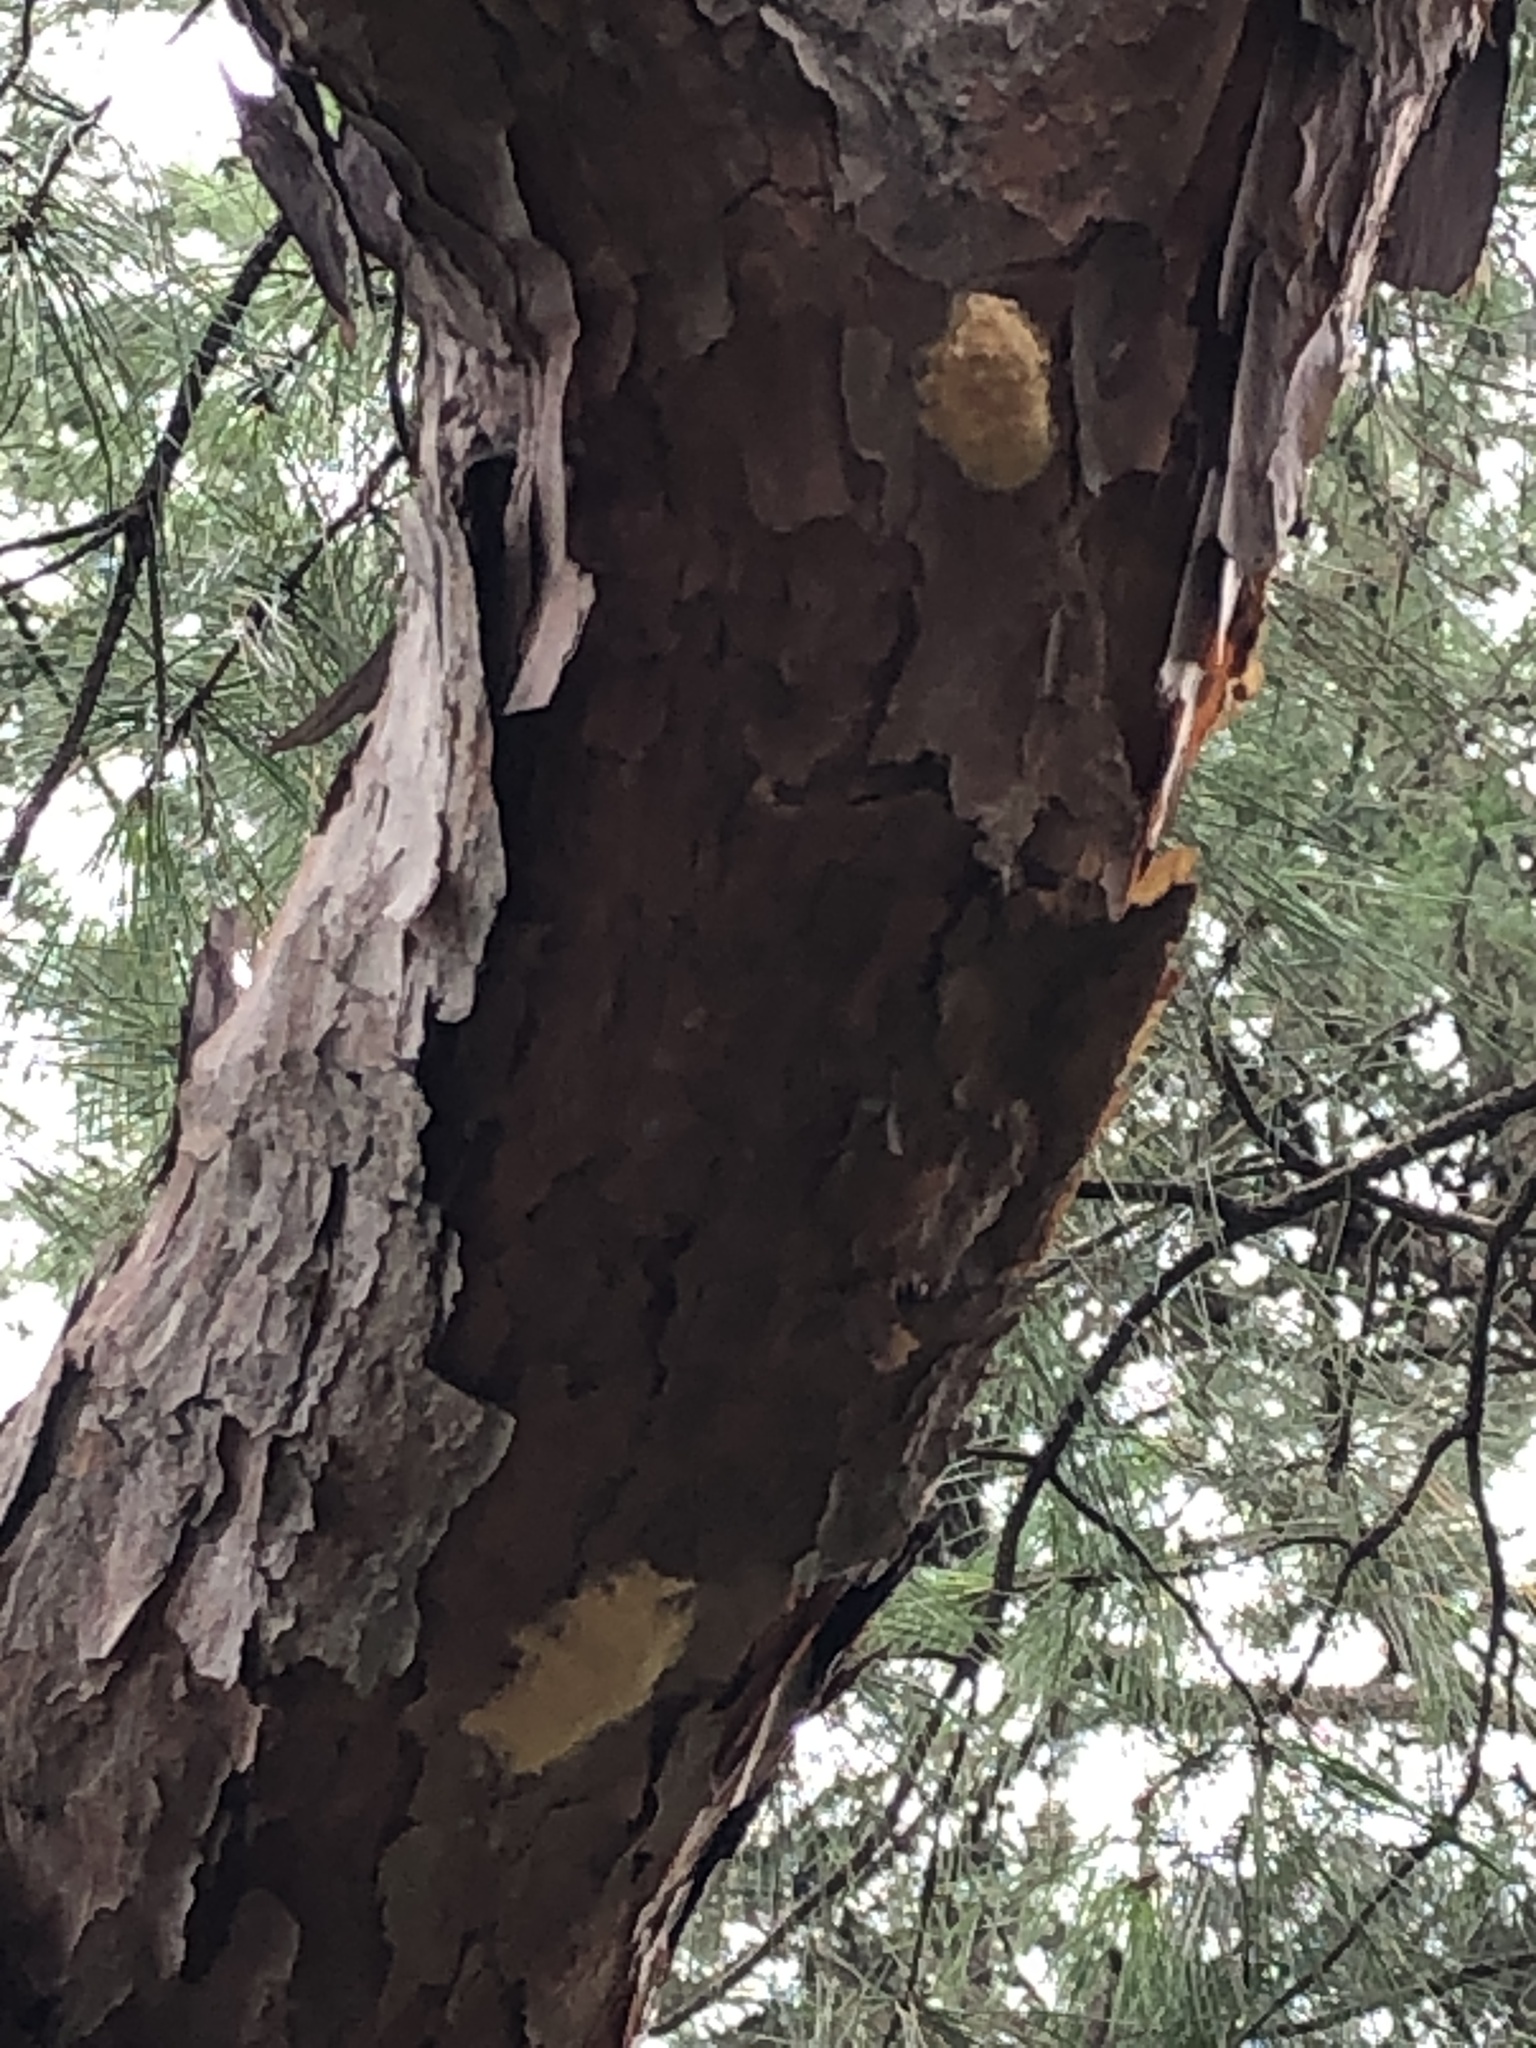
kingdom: Animalia
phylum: Arthropoda
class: Insecta
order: Lepidoptera
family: Erebidae
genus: Lymantria
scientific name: Lymantria dispar
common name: Gypsy moth
